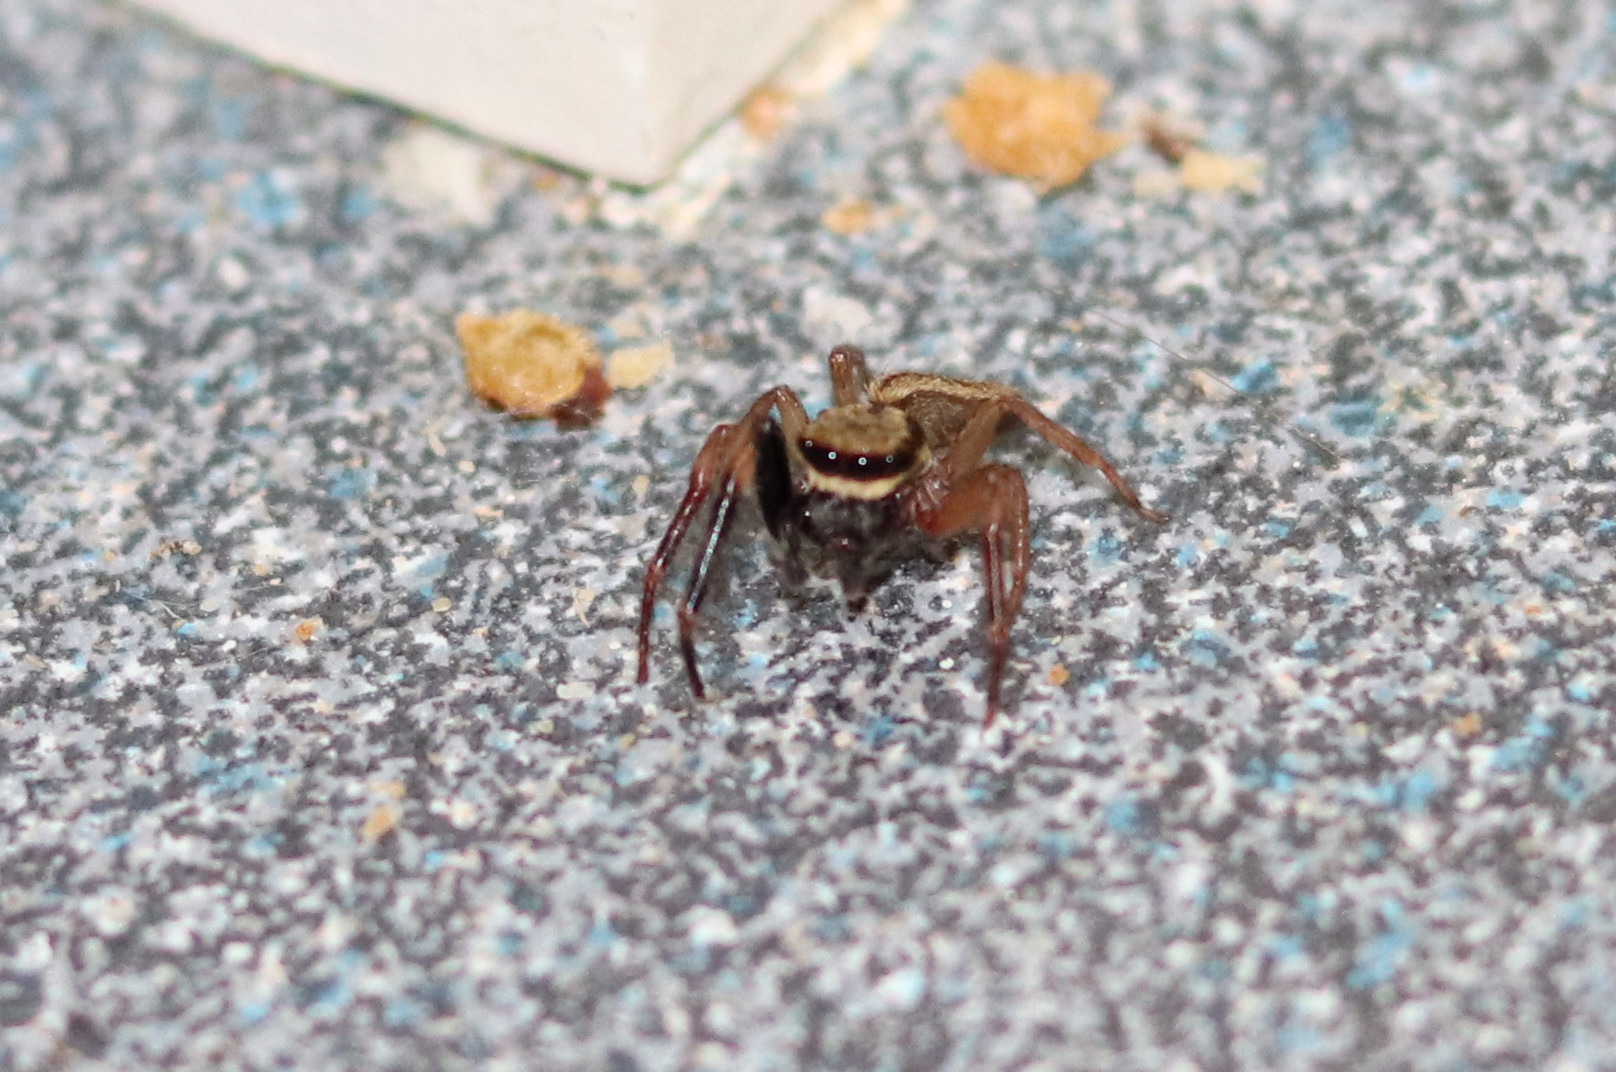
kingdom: Animalia
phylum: Arthropoda
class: Arachnida
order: Araneae
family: Salticidae
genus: Trite
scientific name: Trite auricoma
